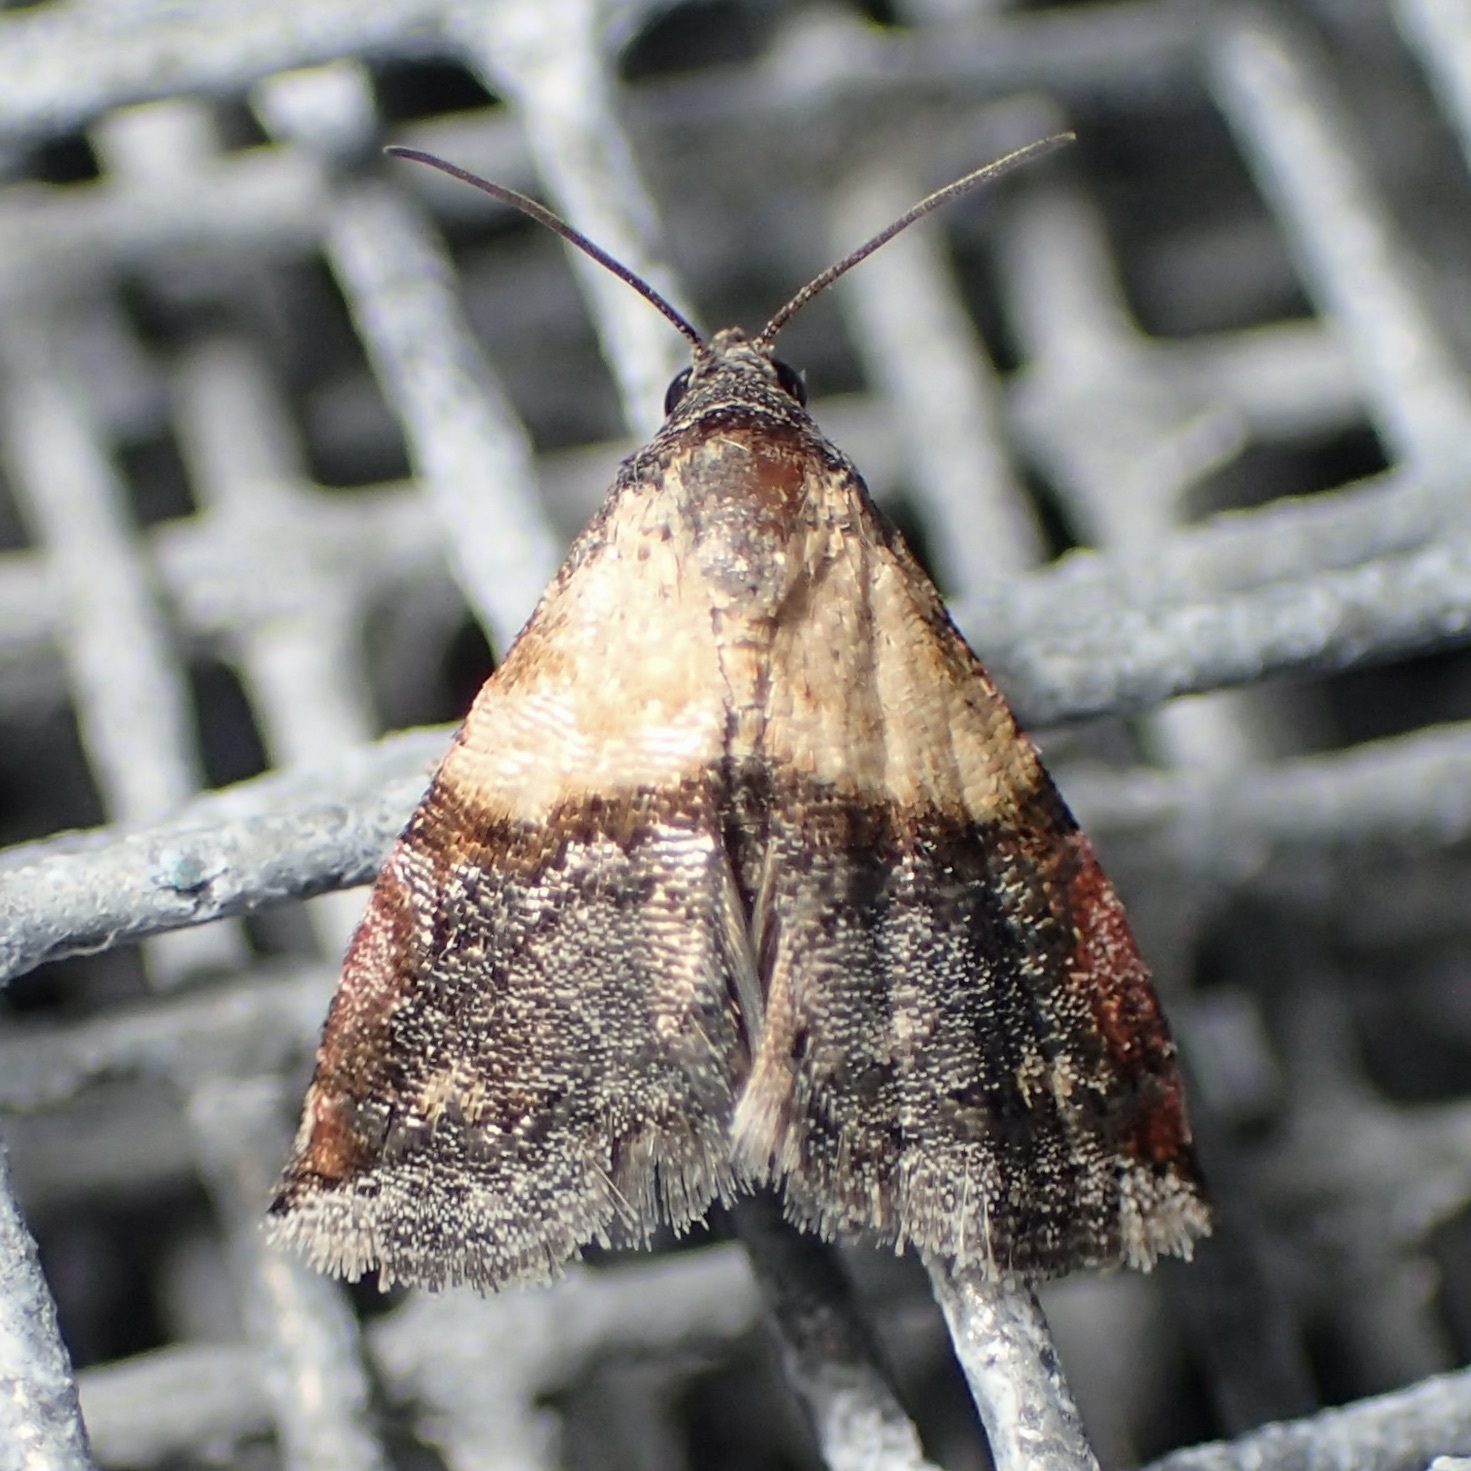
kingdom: Animalia
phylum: Arthropoda
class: Insecta
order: Lepidoptera
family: Noctuidae
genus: Tripudia
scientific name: Tripudia luda
